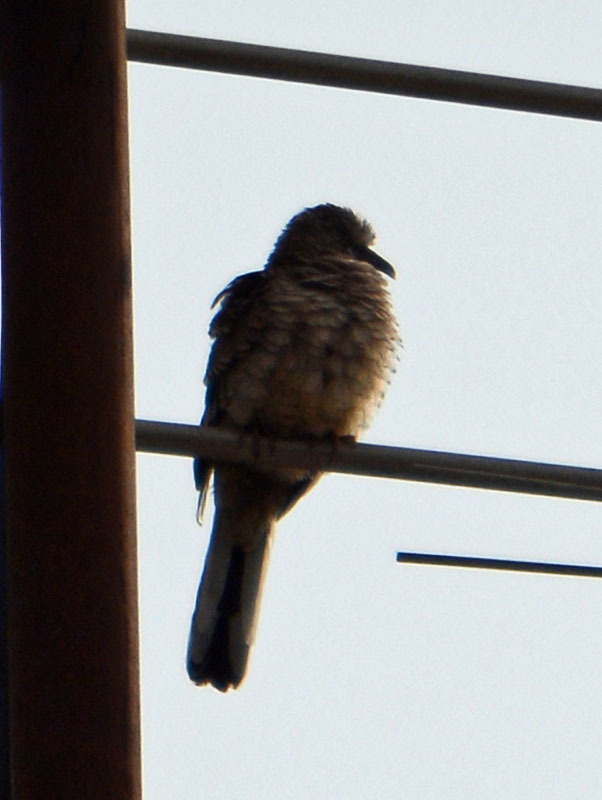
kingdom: Animalia
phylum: Chordata
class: Aves
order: Columbiformes
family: Columbidae
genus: Columbina
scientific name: Columbina inca
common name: Inca dove
